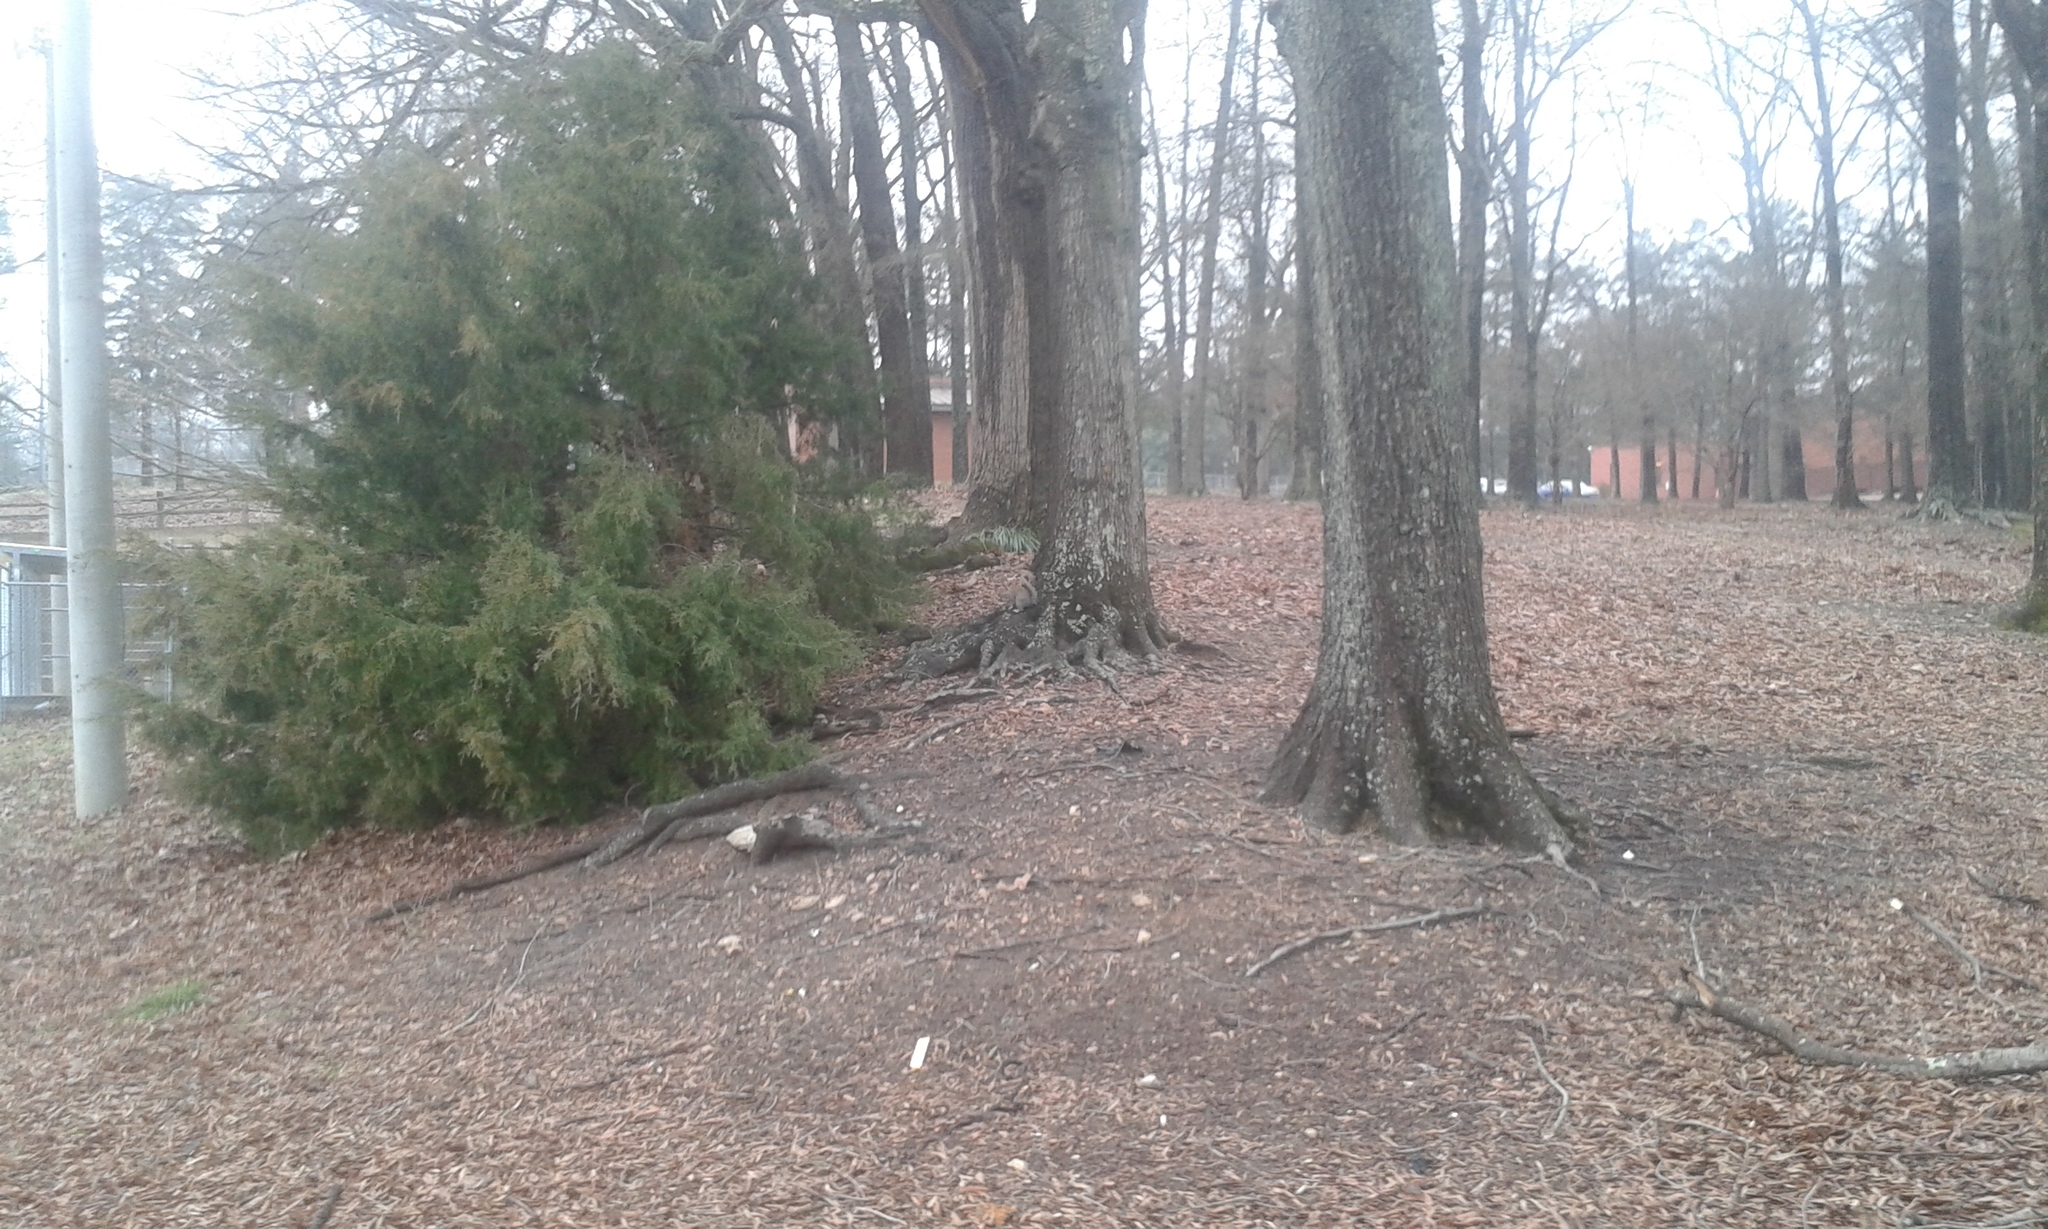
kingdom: Animalia
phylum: Chordata
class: Mammalia
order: Rodentia
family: Sciuridae
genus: Sciurus
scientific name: Sciurus carolinensis
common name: Eastern gray squirrel
